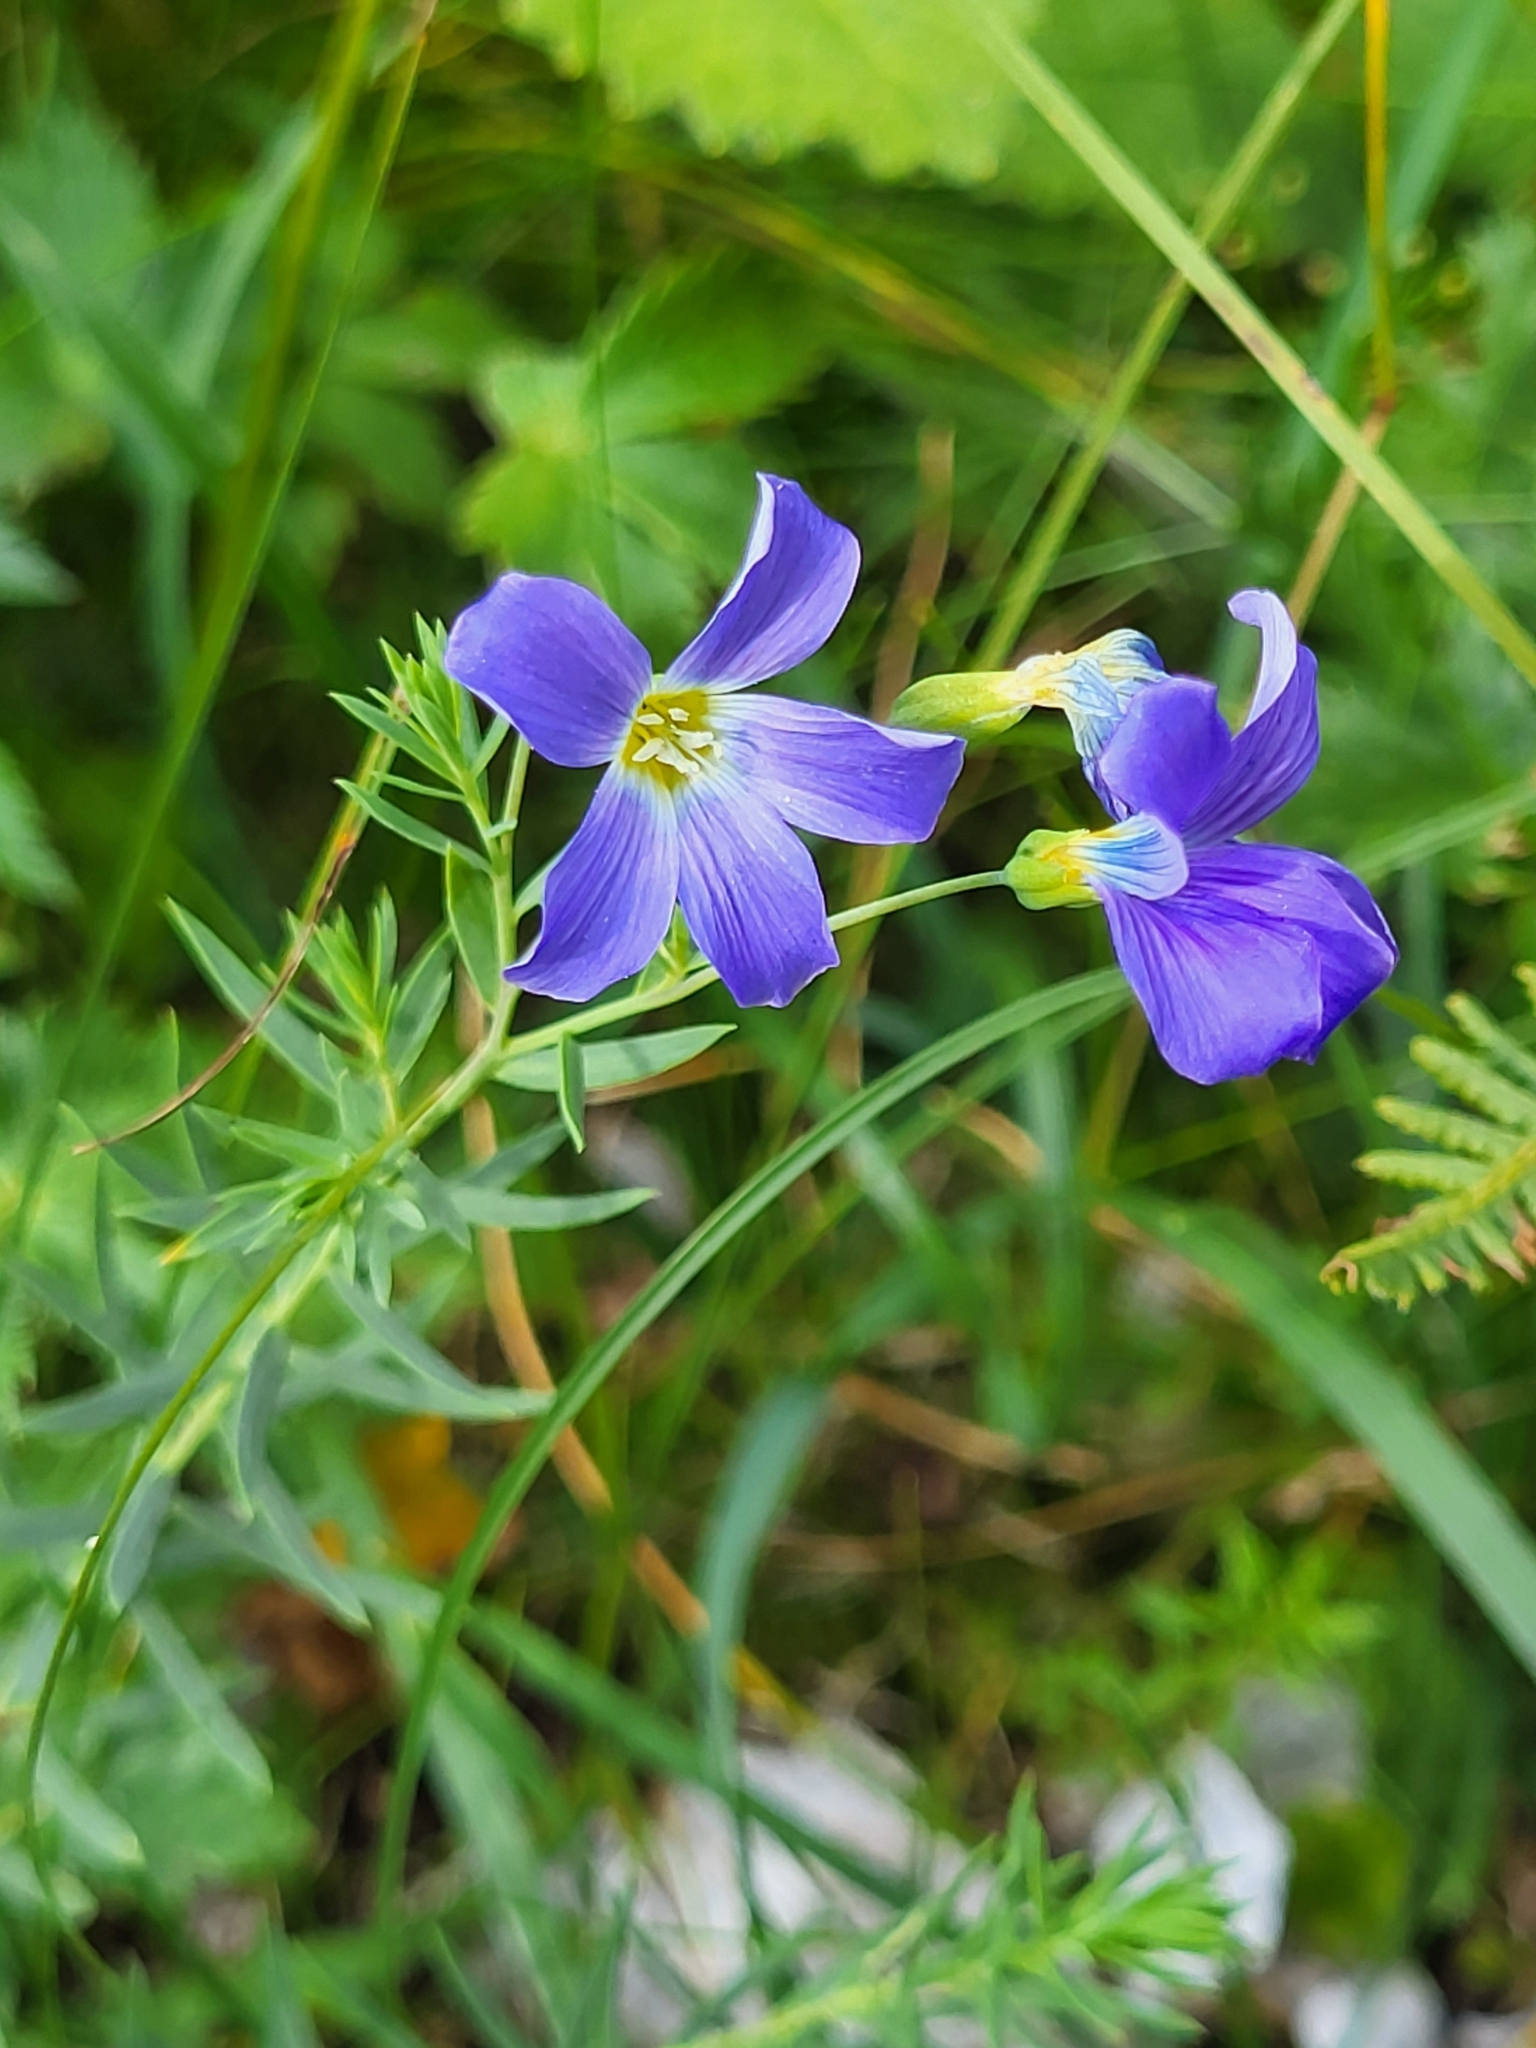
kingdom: Plantae
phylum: Tracheophyta
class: Magnoliopsida
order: Malpighiales
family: Linaceae
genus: Linum
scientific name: Linum alpinum
